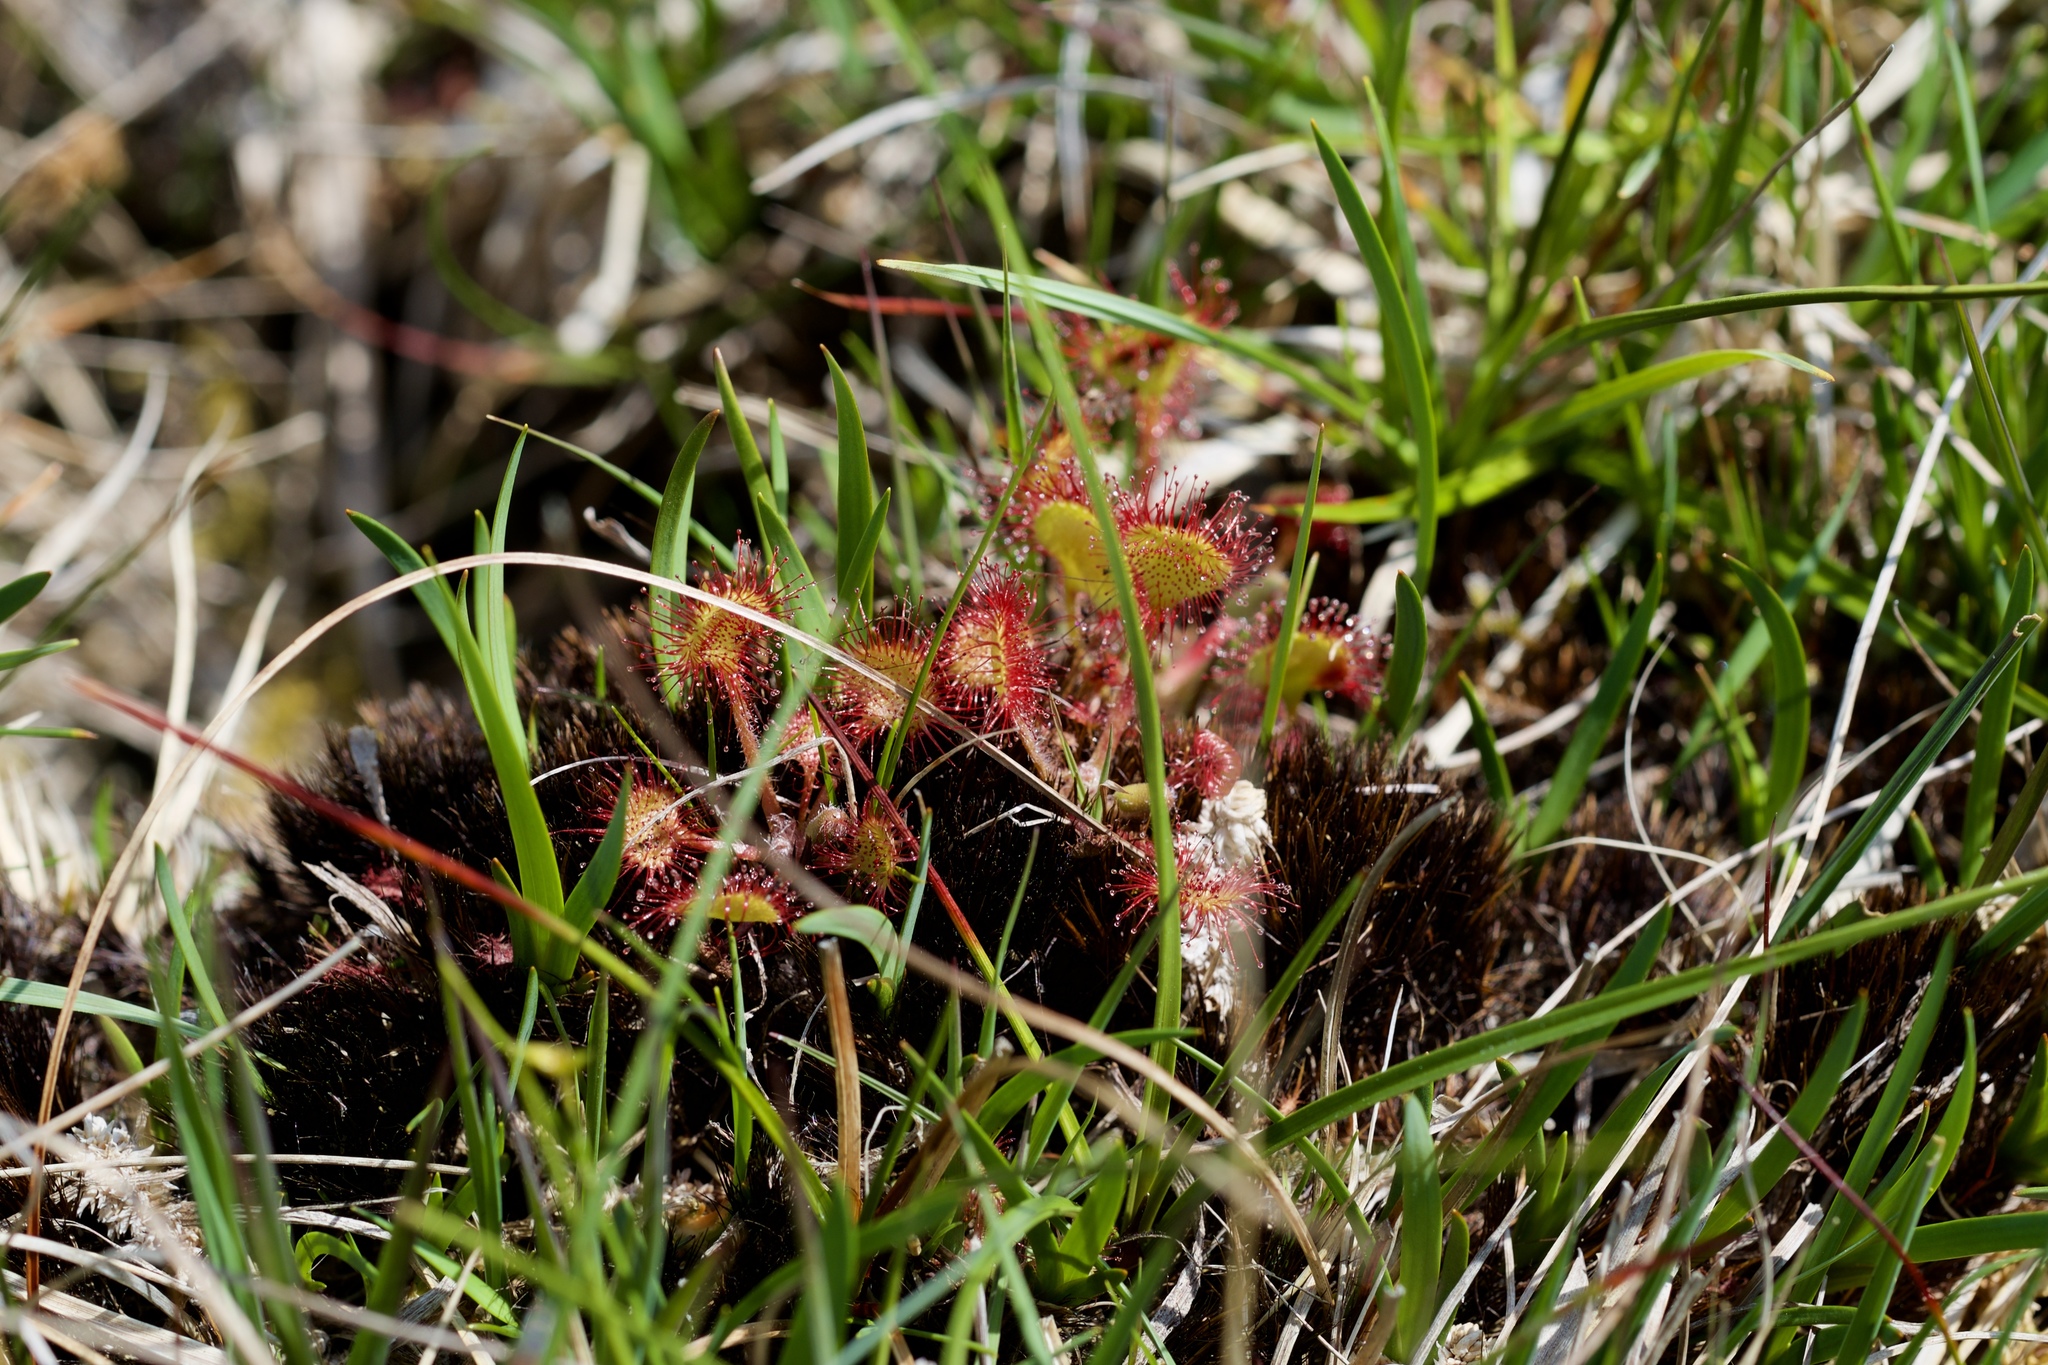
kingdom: Plantae
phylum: Tracheophyta
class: Magnoliopsida
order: Caryophyllales
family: Droseraceae
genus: Drosera
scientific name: Drosera rotundifolia
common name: Round-leaved sundew
